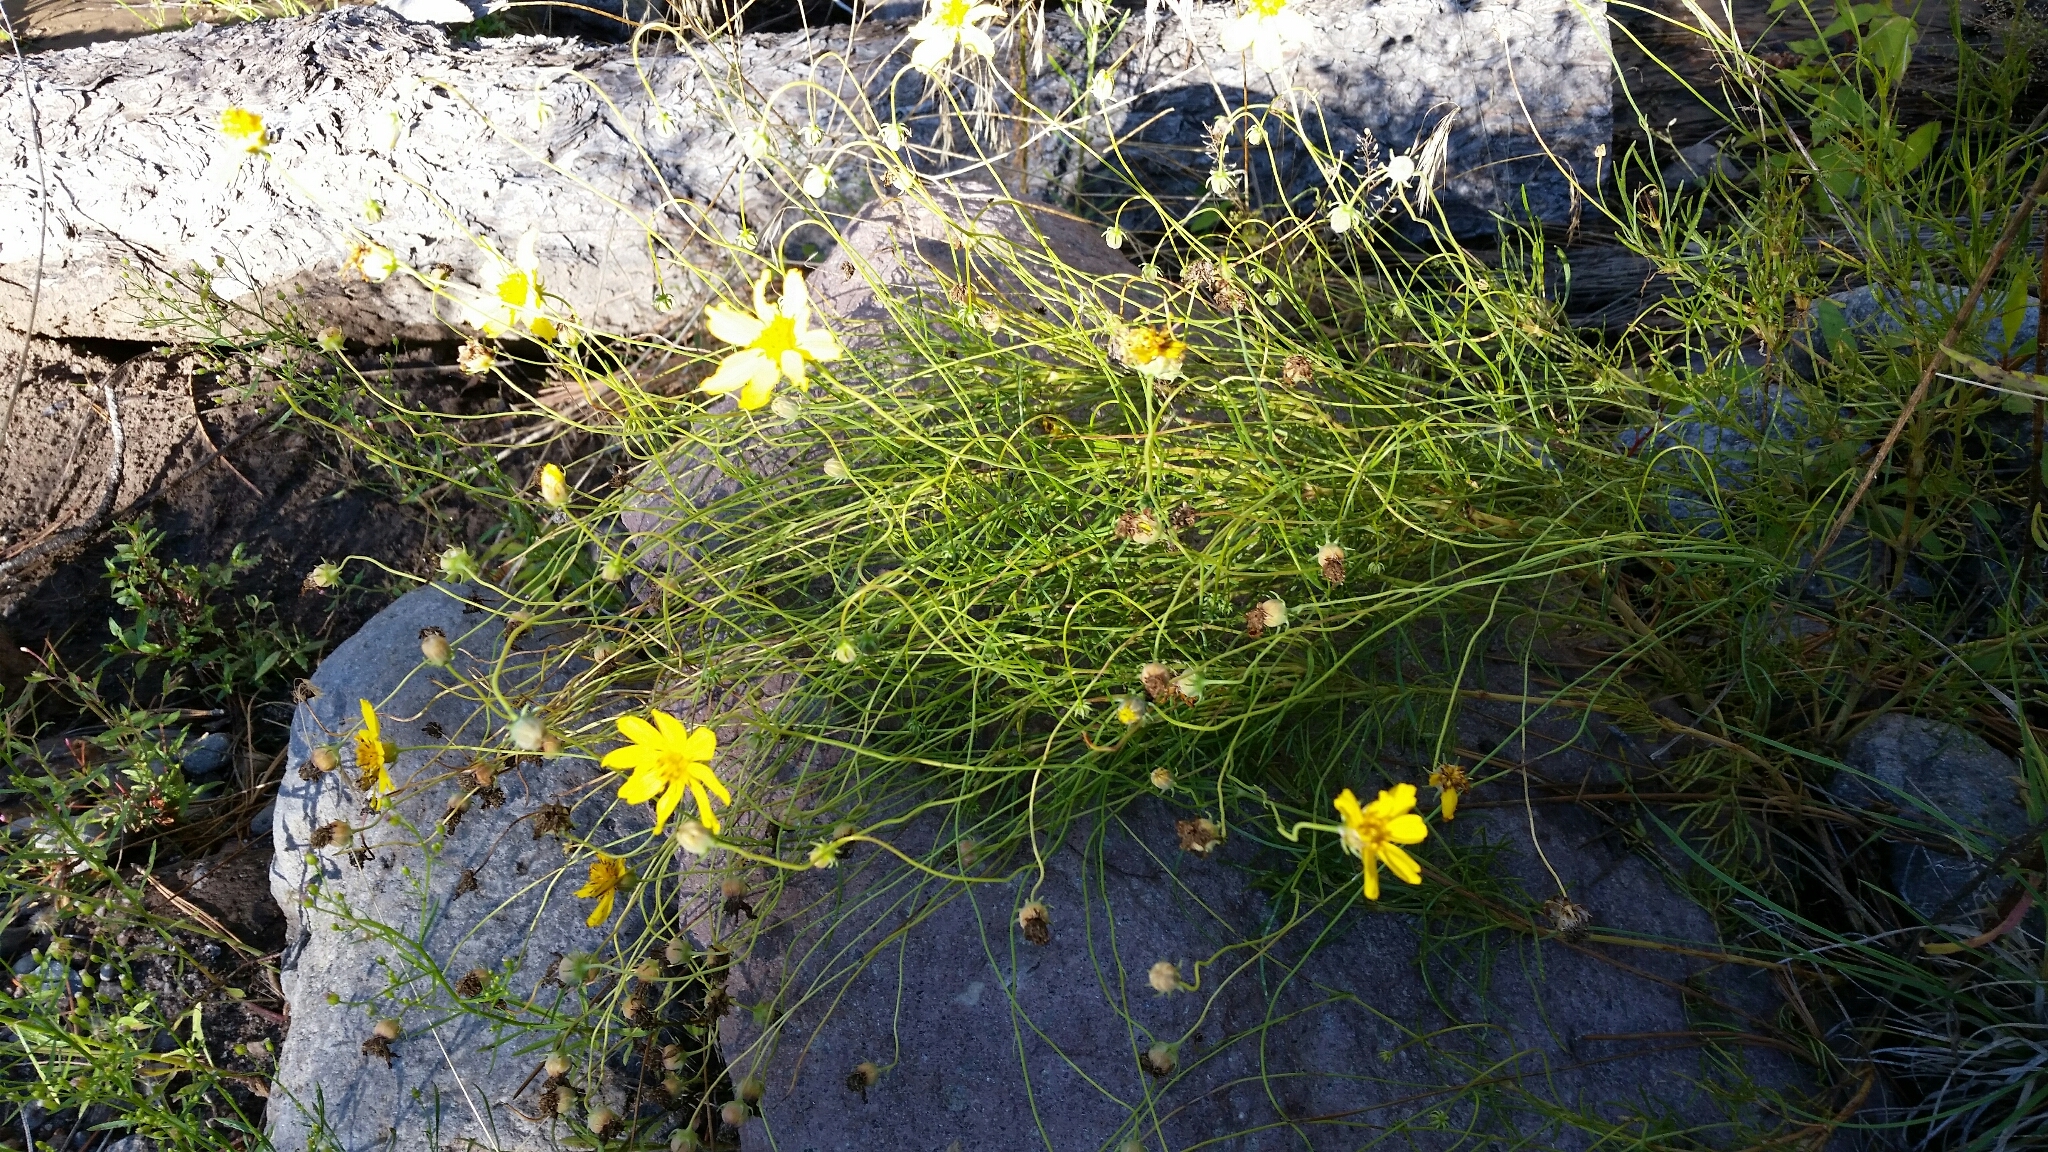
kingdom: Plantae
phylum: Tracheophyta
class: Magnoliopsida
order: Asterales
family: Asteraceae
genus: Thelesperma
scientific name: Thelesperma filifolium
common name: Stiff greenthread
